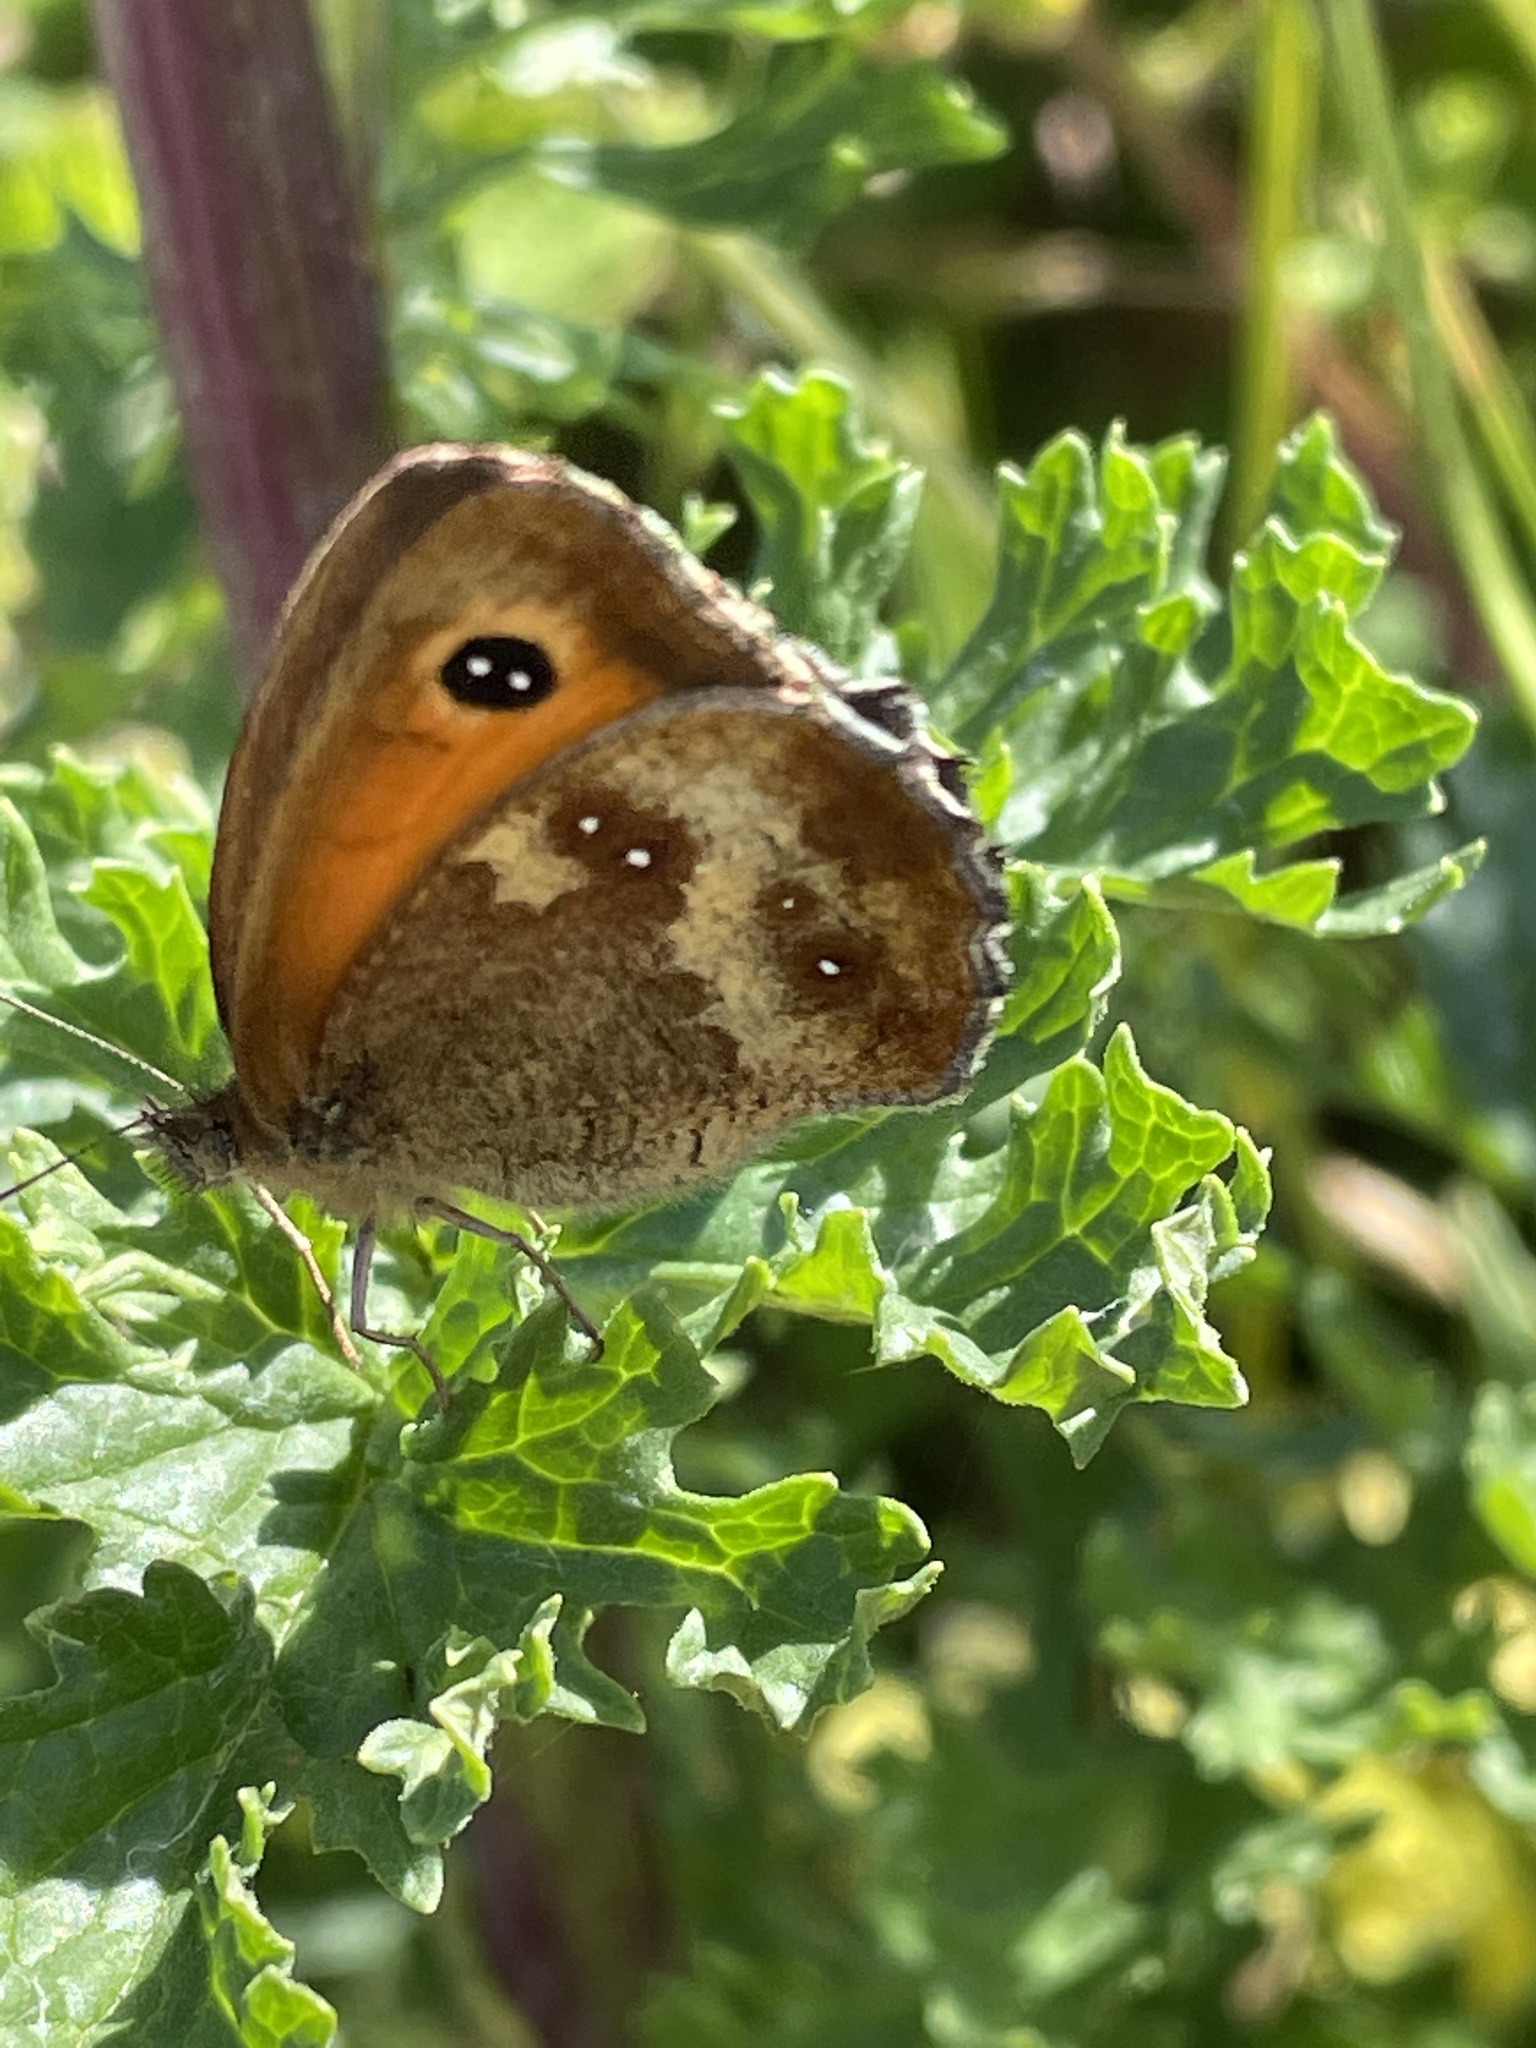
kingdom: Animalia
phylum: Arthropoda
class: Insecta
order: Lepidoptera
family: Nymphalidae
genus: Pyronia
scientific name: Pyronia tithonus
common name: Gatekeeper
